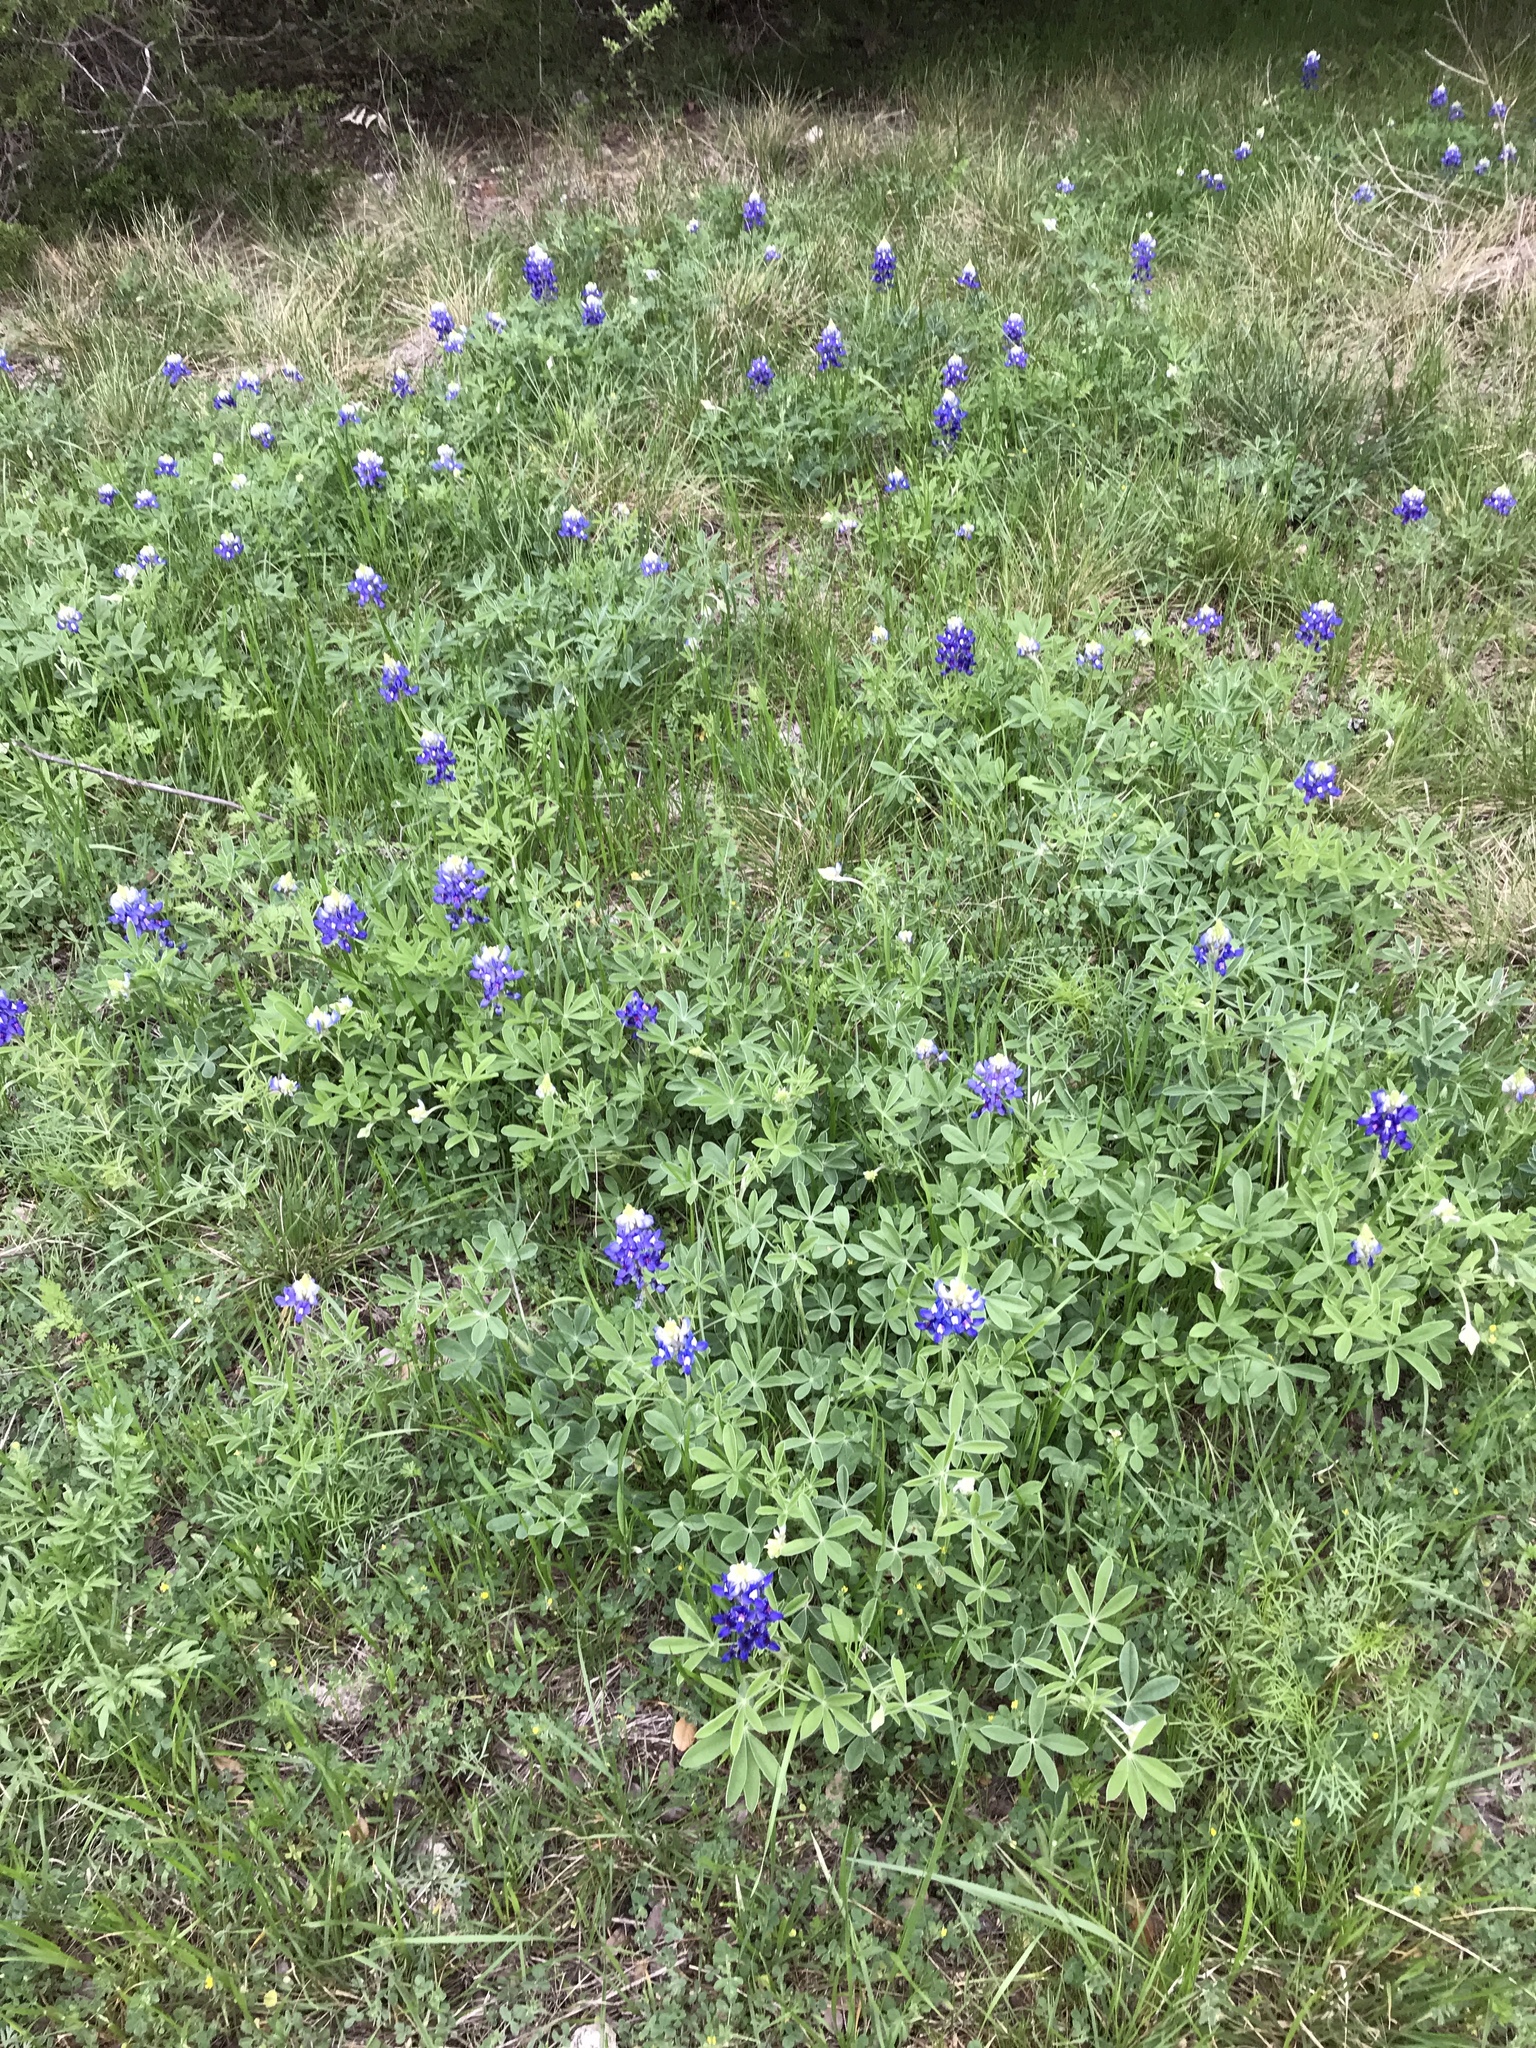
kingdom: Plantae
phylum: Tracheophyta
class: Magnoliopsida
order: Fabales
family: Fabaceae
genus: Lupinus
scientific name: Lupinus texensis
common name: Texas bluebonnet
